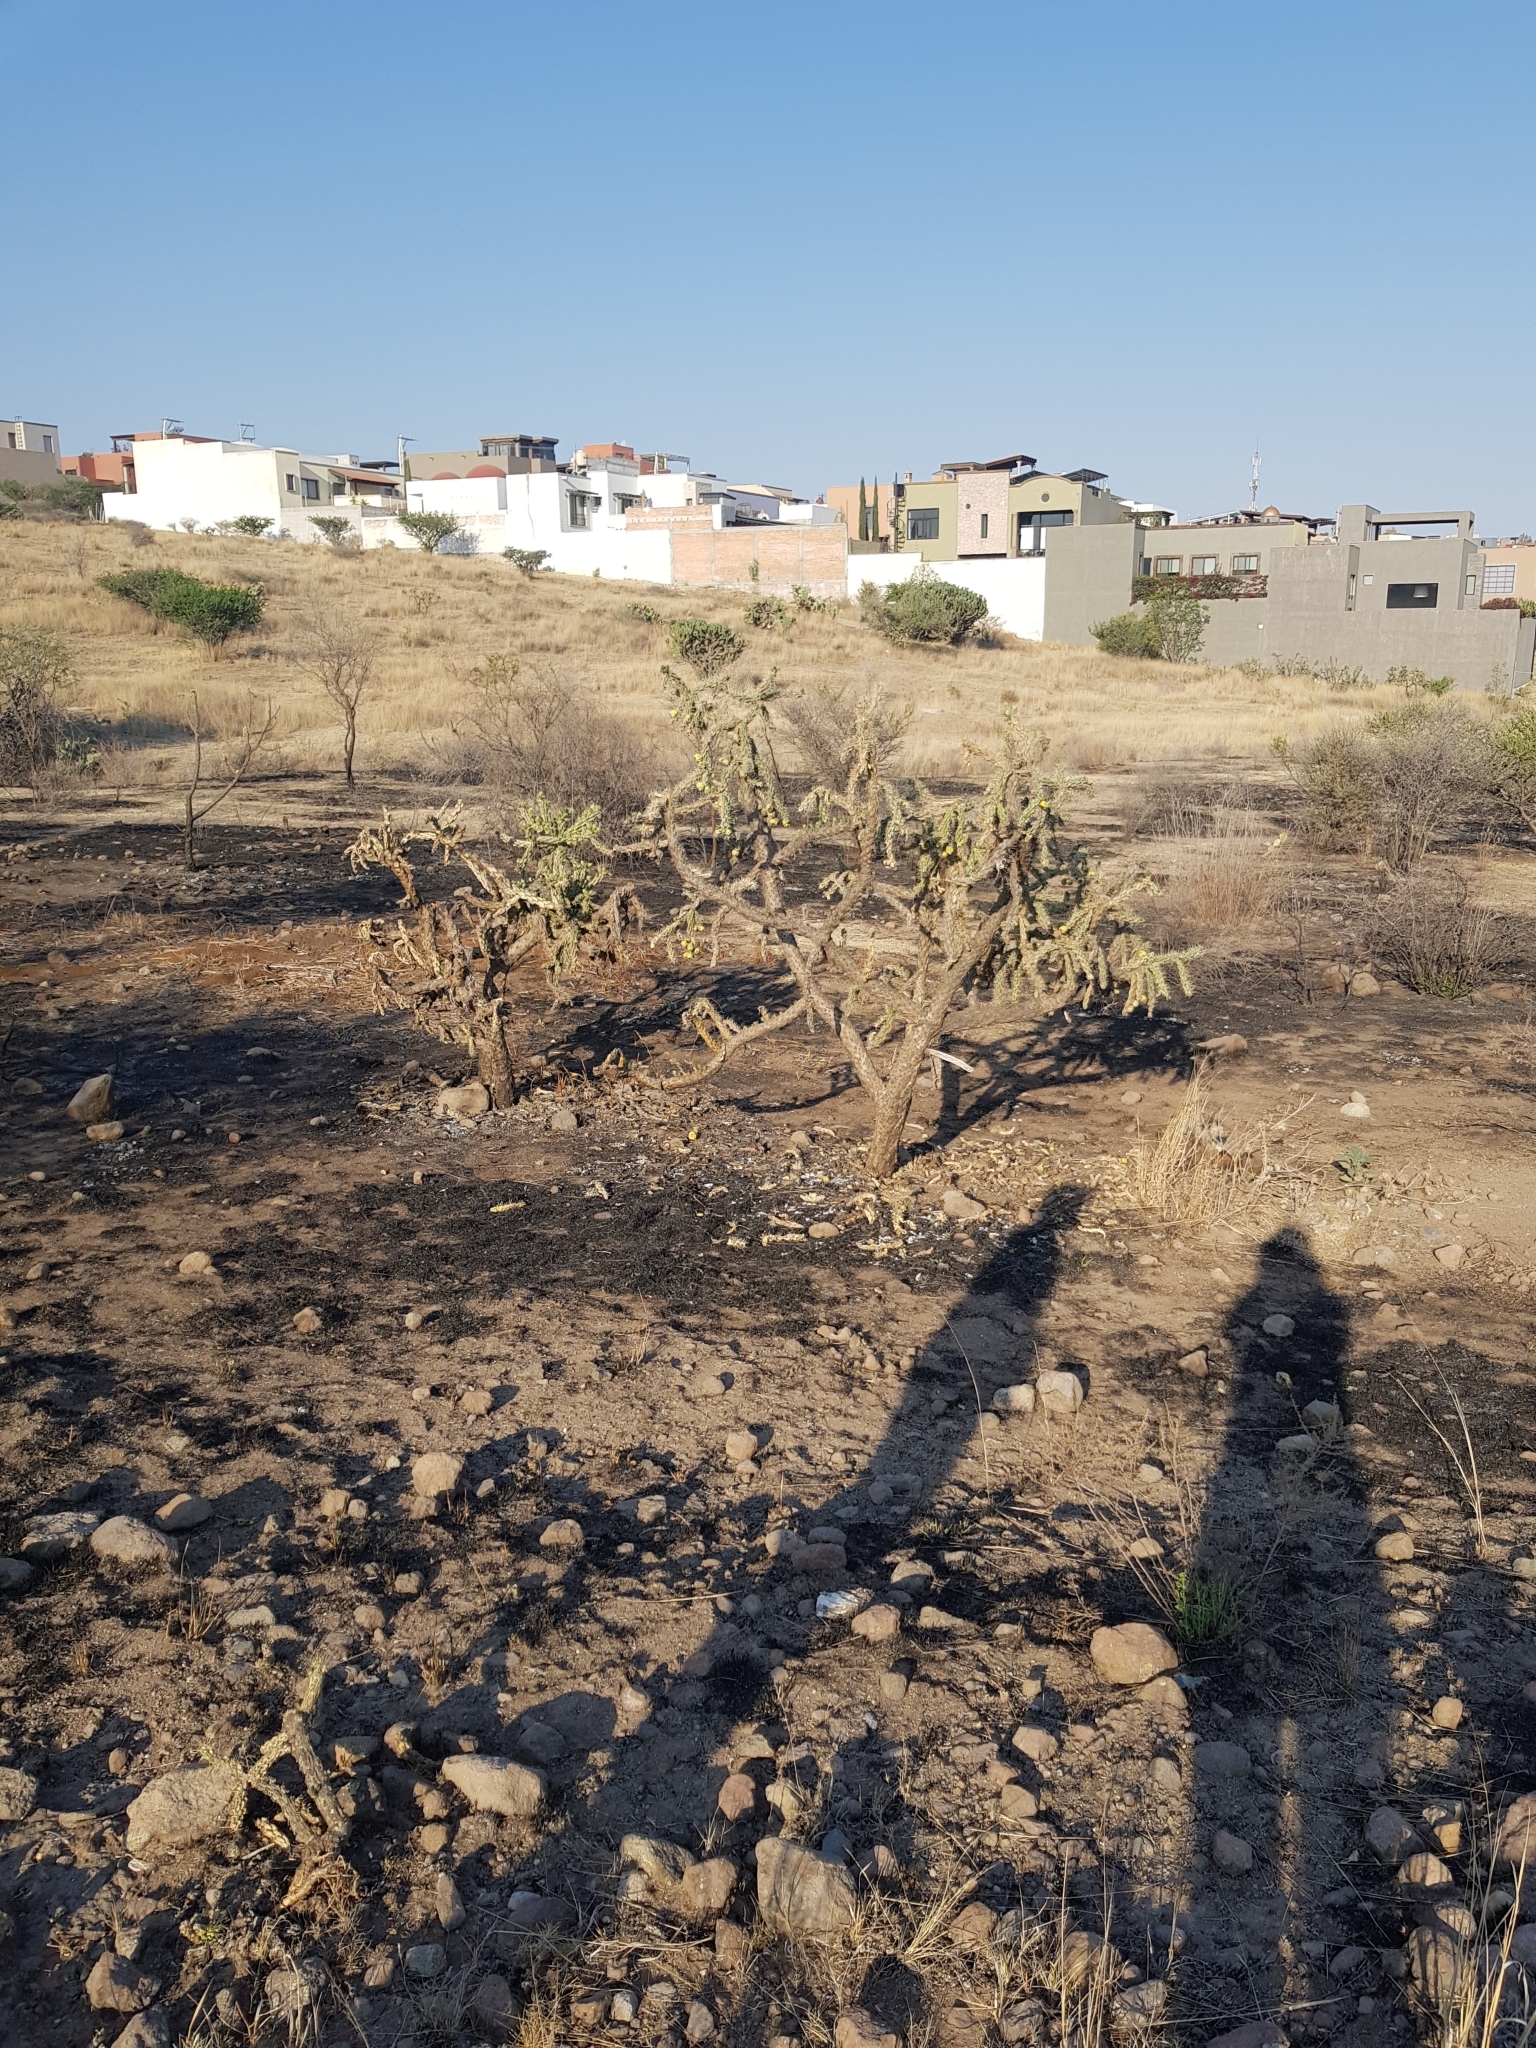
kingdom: Plantae
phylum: Tracheophyta
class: Magnoliopsida
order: Caryophyllales
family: Cactaceae
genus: Cylindropuntia
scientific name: Cylindropuntia imbricata
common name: Candelabrum cactus
